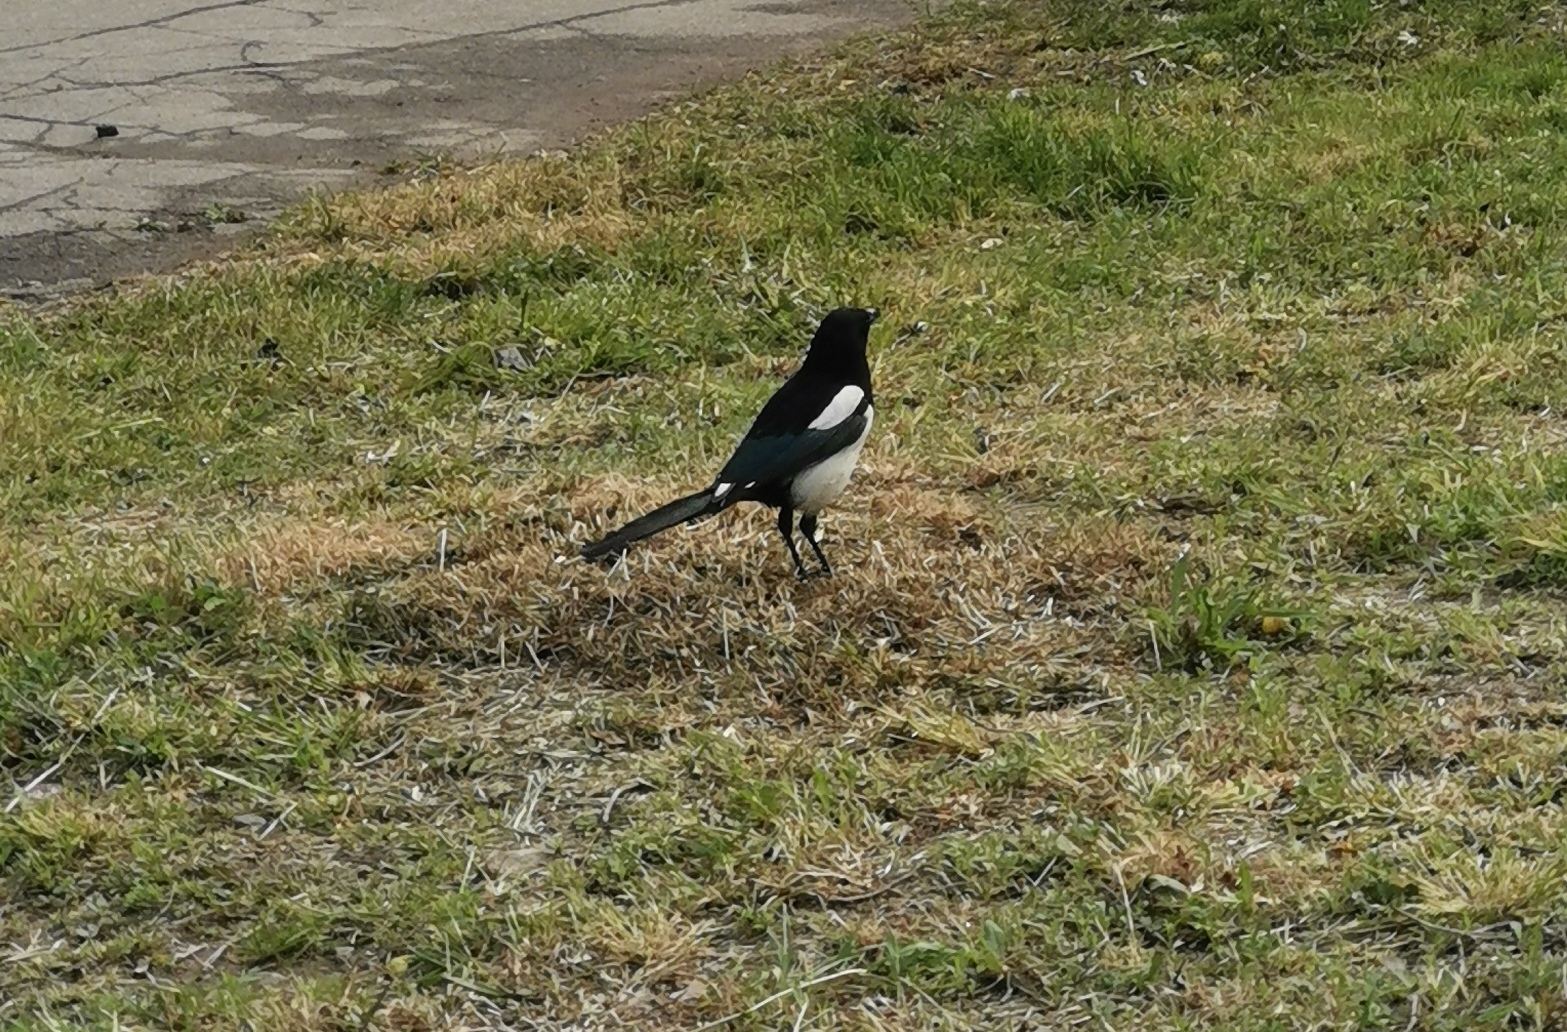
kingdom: Animalia
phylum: Chordata
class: Aves
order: Passeriformes
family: Corvidae
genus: Pica
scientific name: Pica pica
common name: Eurasian magpie
